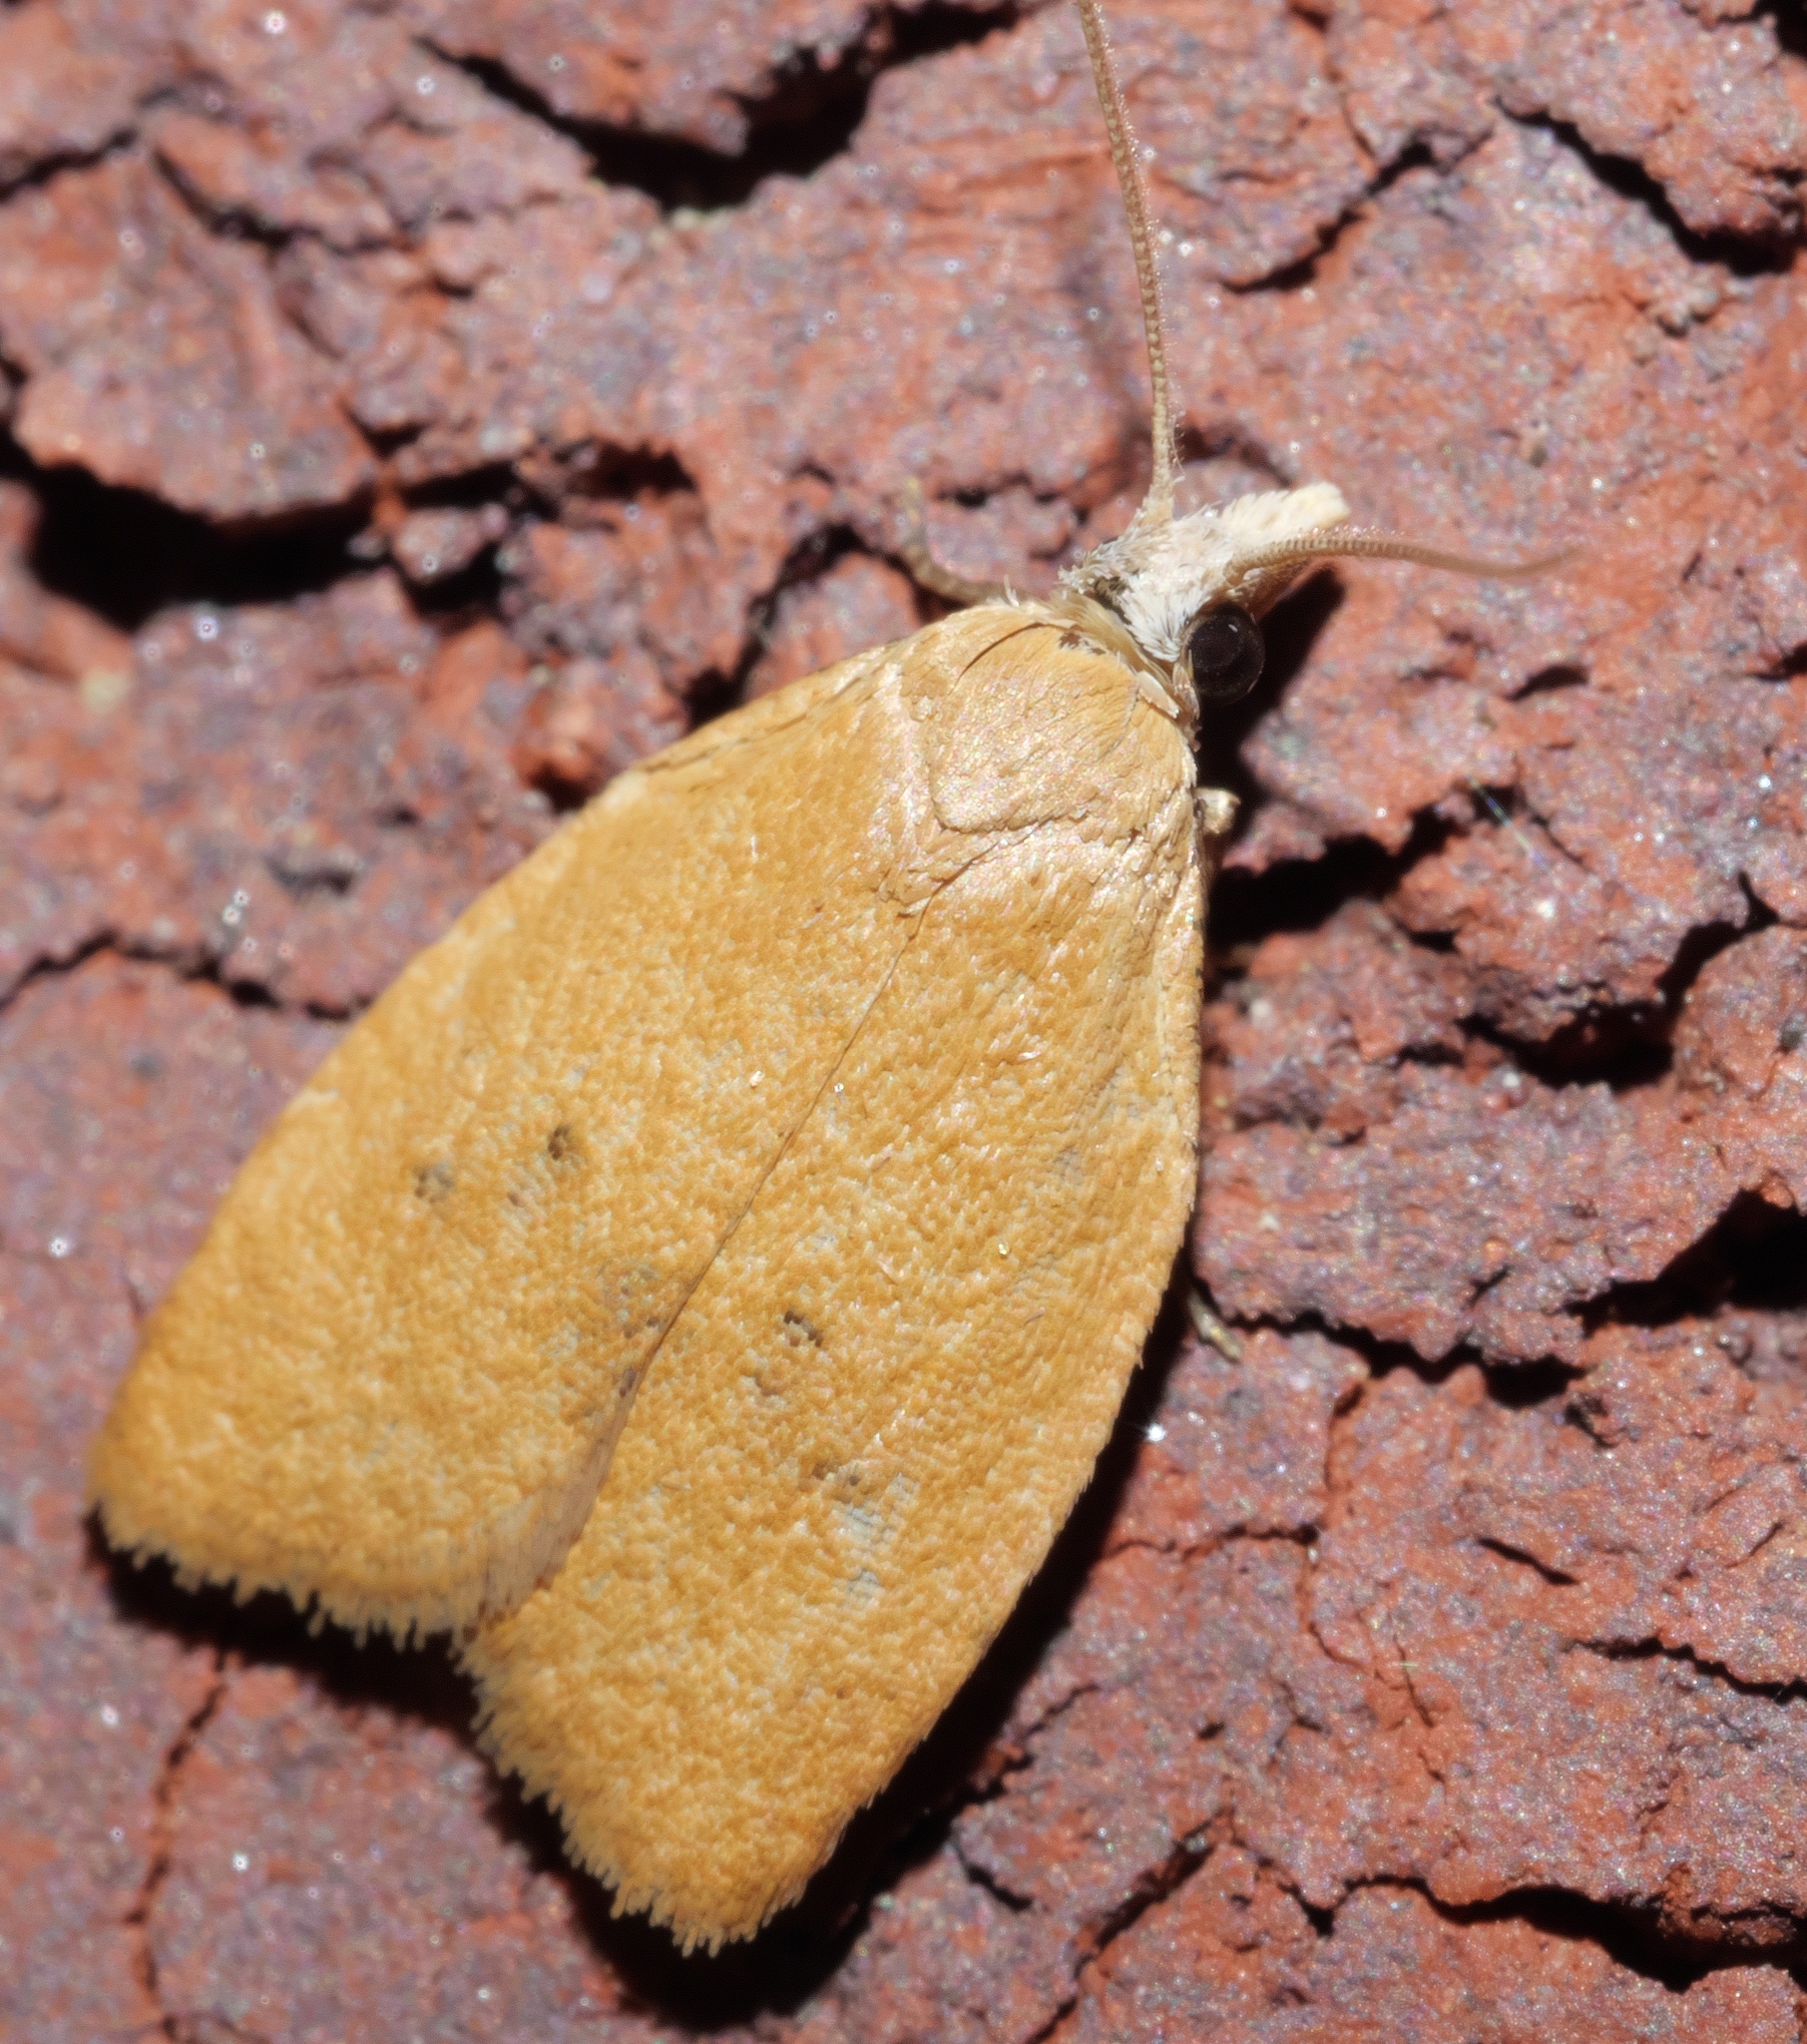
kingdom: Animalia
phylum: Arthropoda
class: Insecta
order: Lepidoptera
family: Tortricidae
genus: Sparganothoides
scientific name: Sparganothoides lentiginosana
